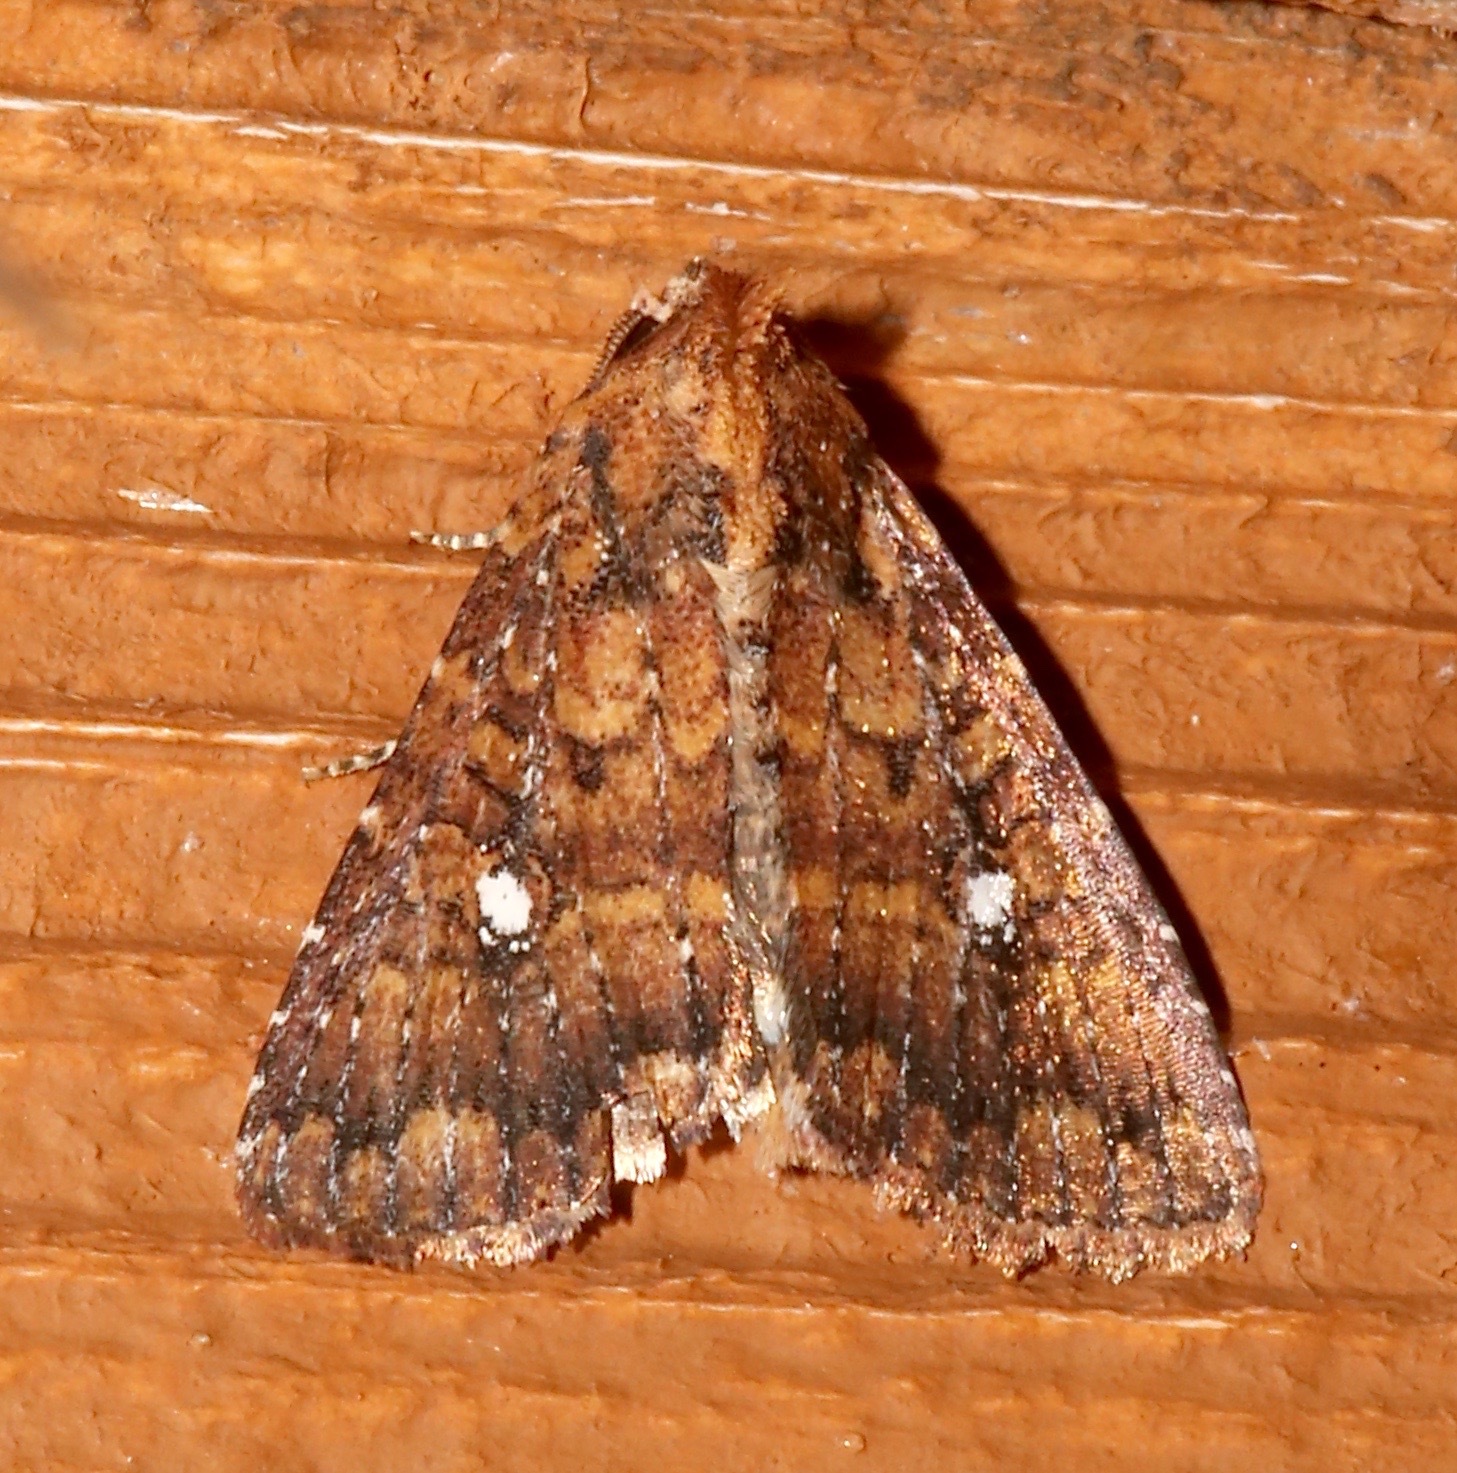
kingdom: Animalia
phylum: Arthropoda
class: Insecta
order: Lepidoptera
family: Noctuidae
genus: Condica
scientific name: Condica mobilis
